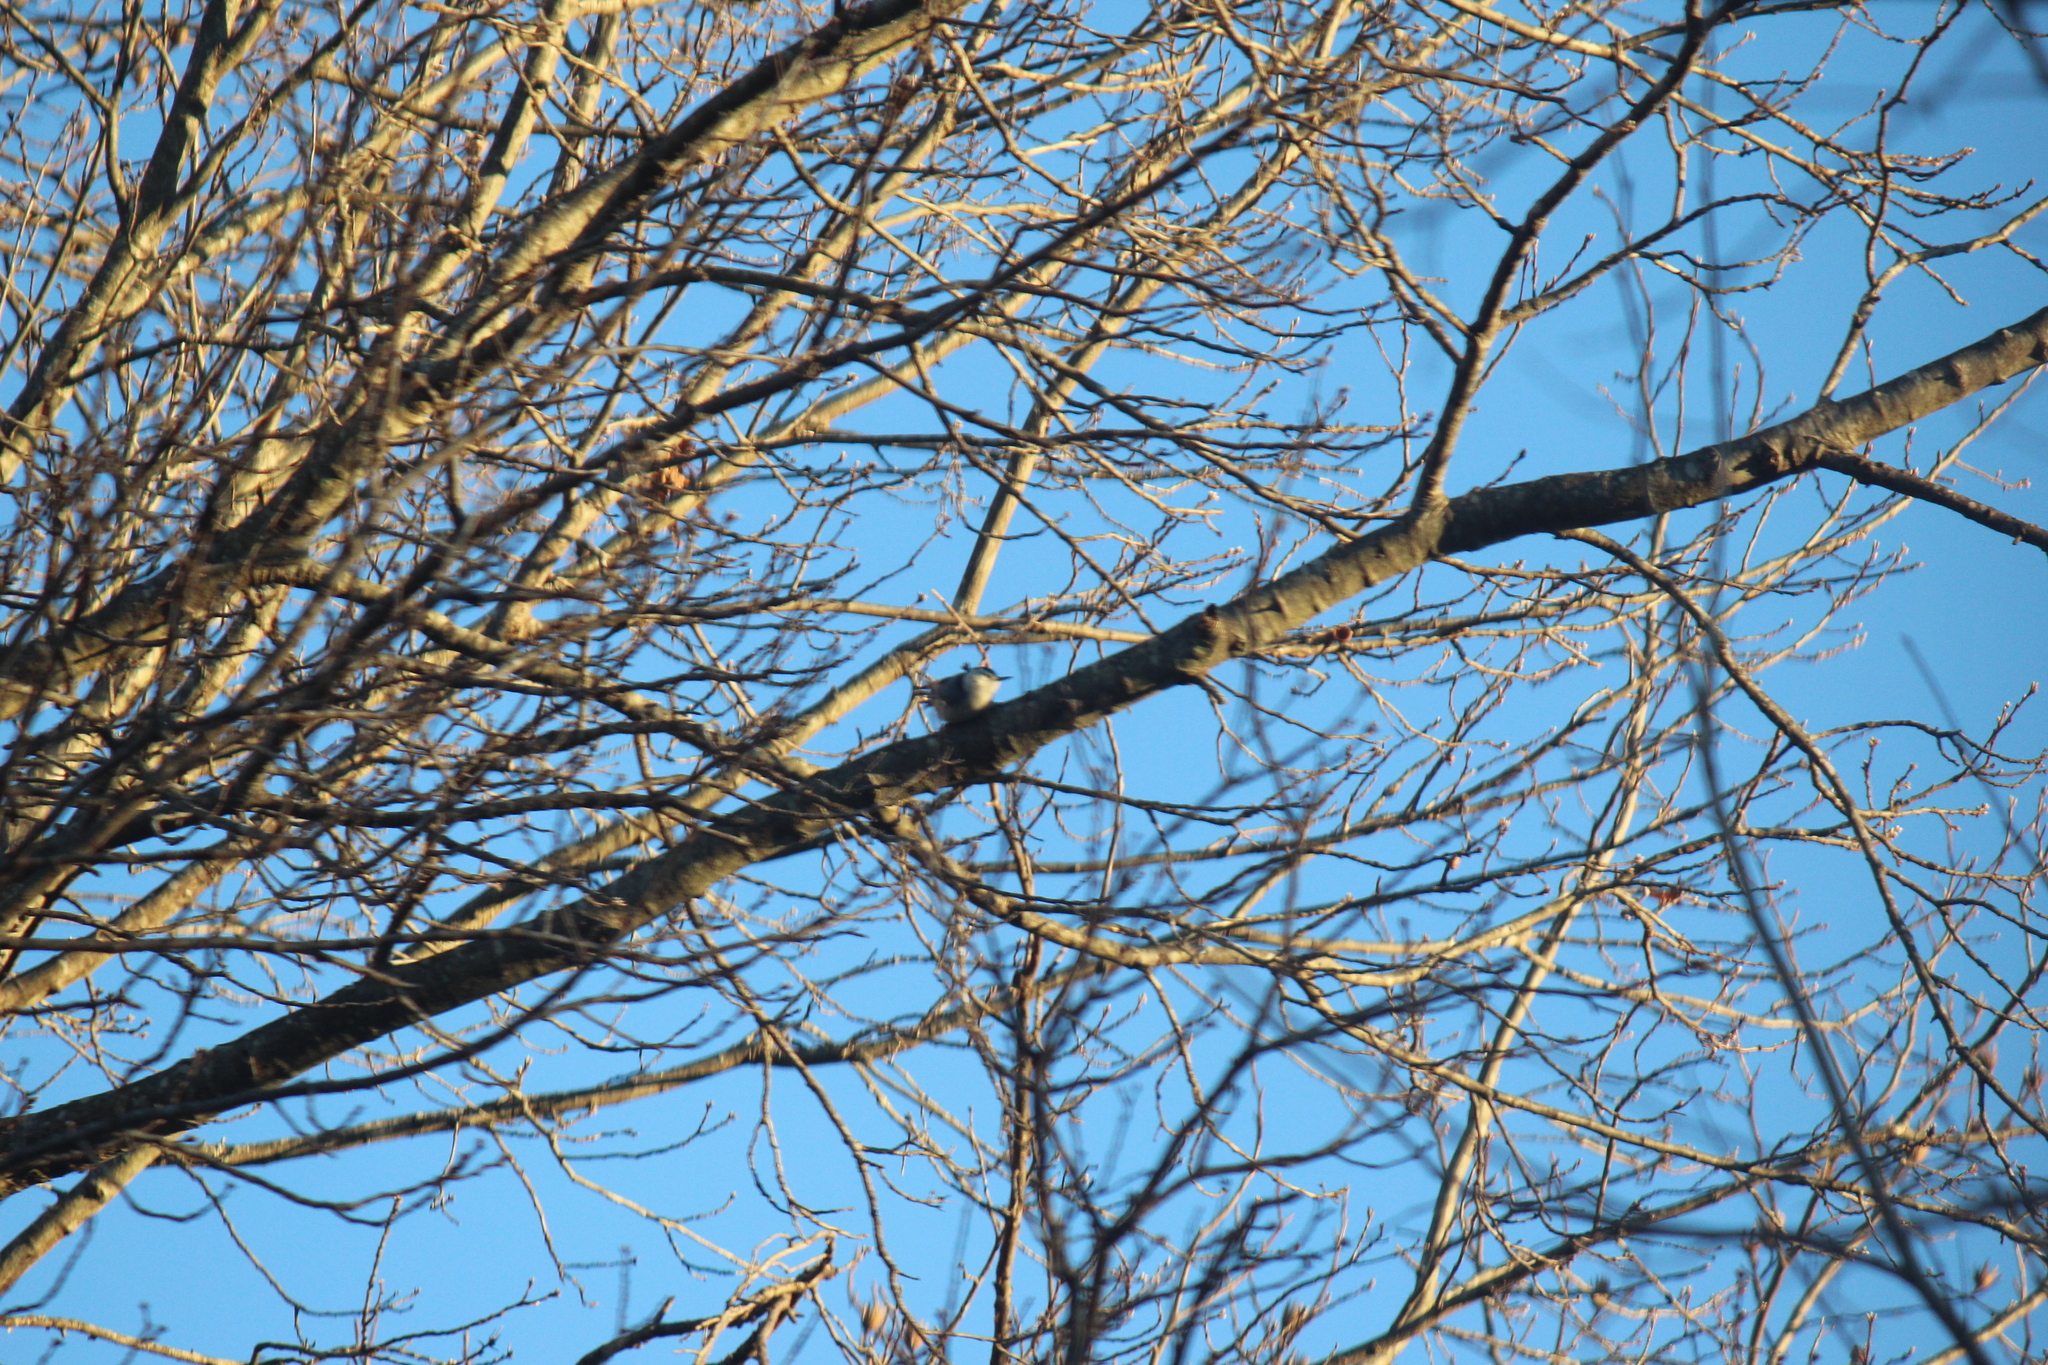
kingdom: Animalia
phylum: Chordata
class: Aves
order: Passeriformes
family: Sittidae
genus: Sitta
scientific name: Sitta carolinensis
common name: White-breasted nuthatch
